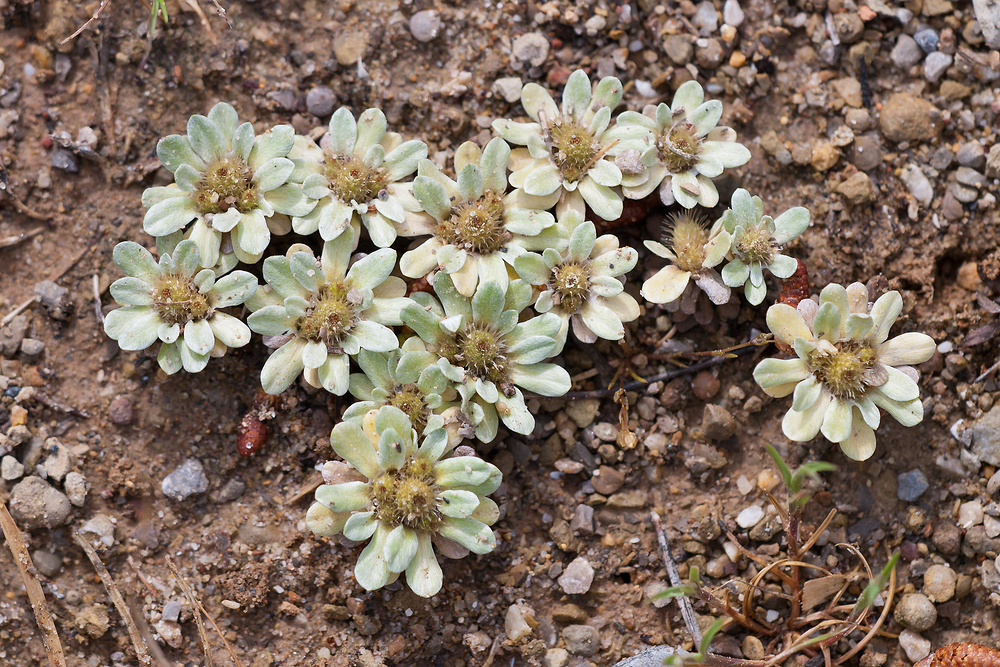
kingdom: Plantae
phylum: Tracheophyta
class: Magnoliopsida
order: Asterales
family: Asteraceae
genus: Filago
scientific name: Filago pygmaea
